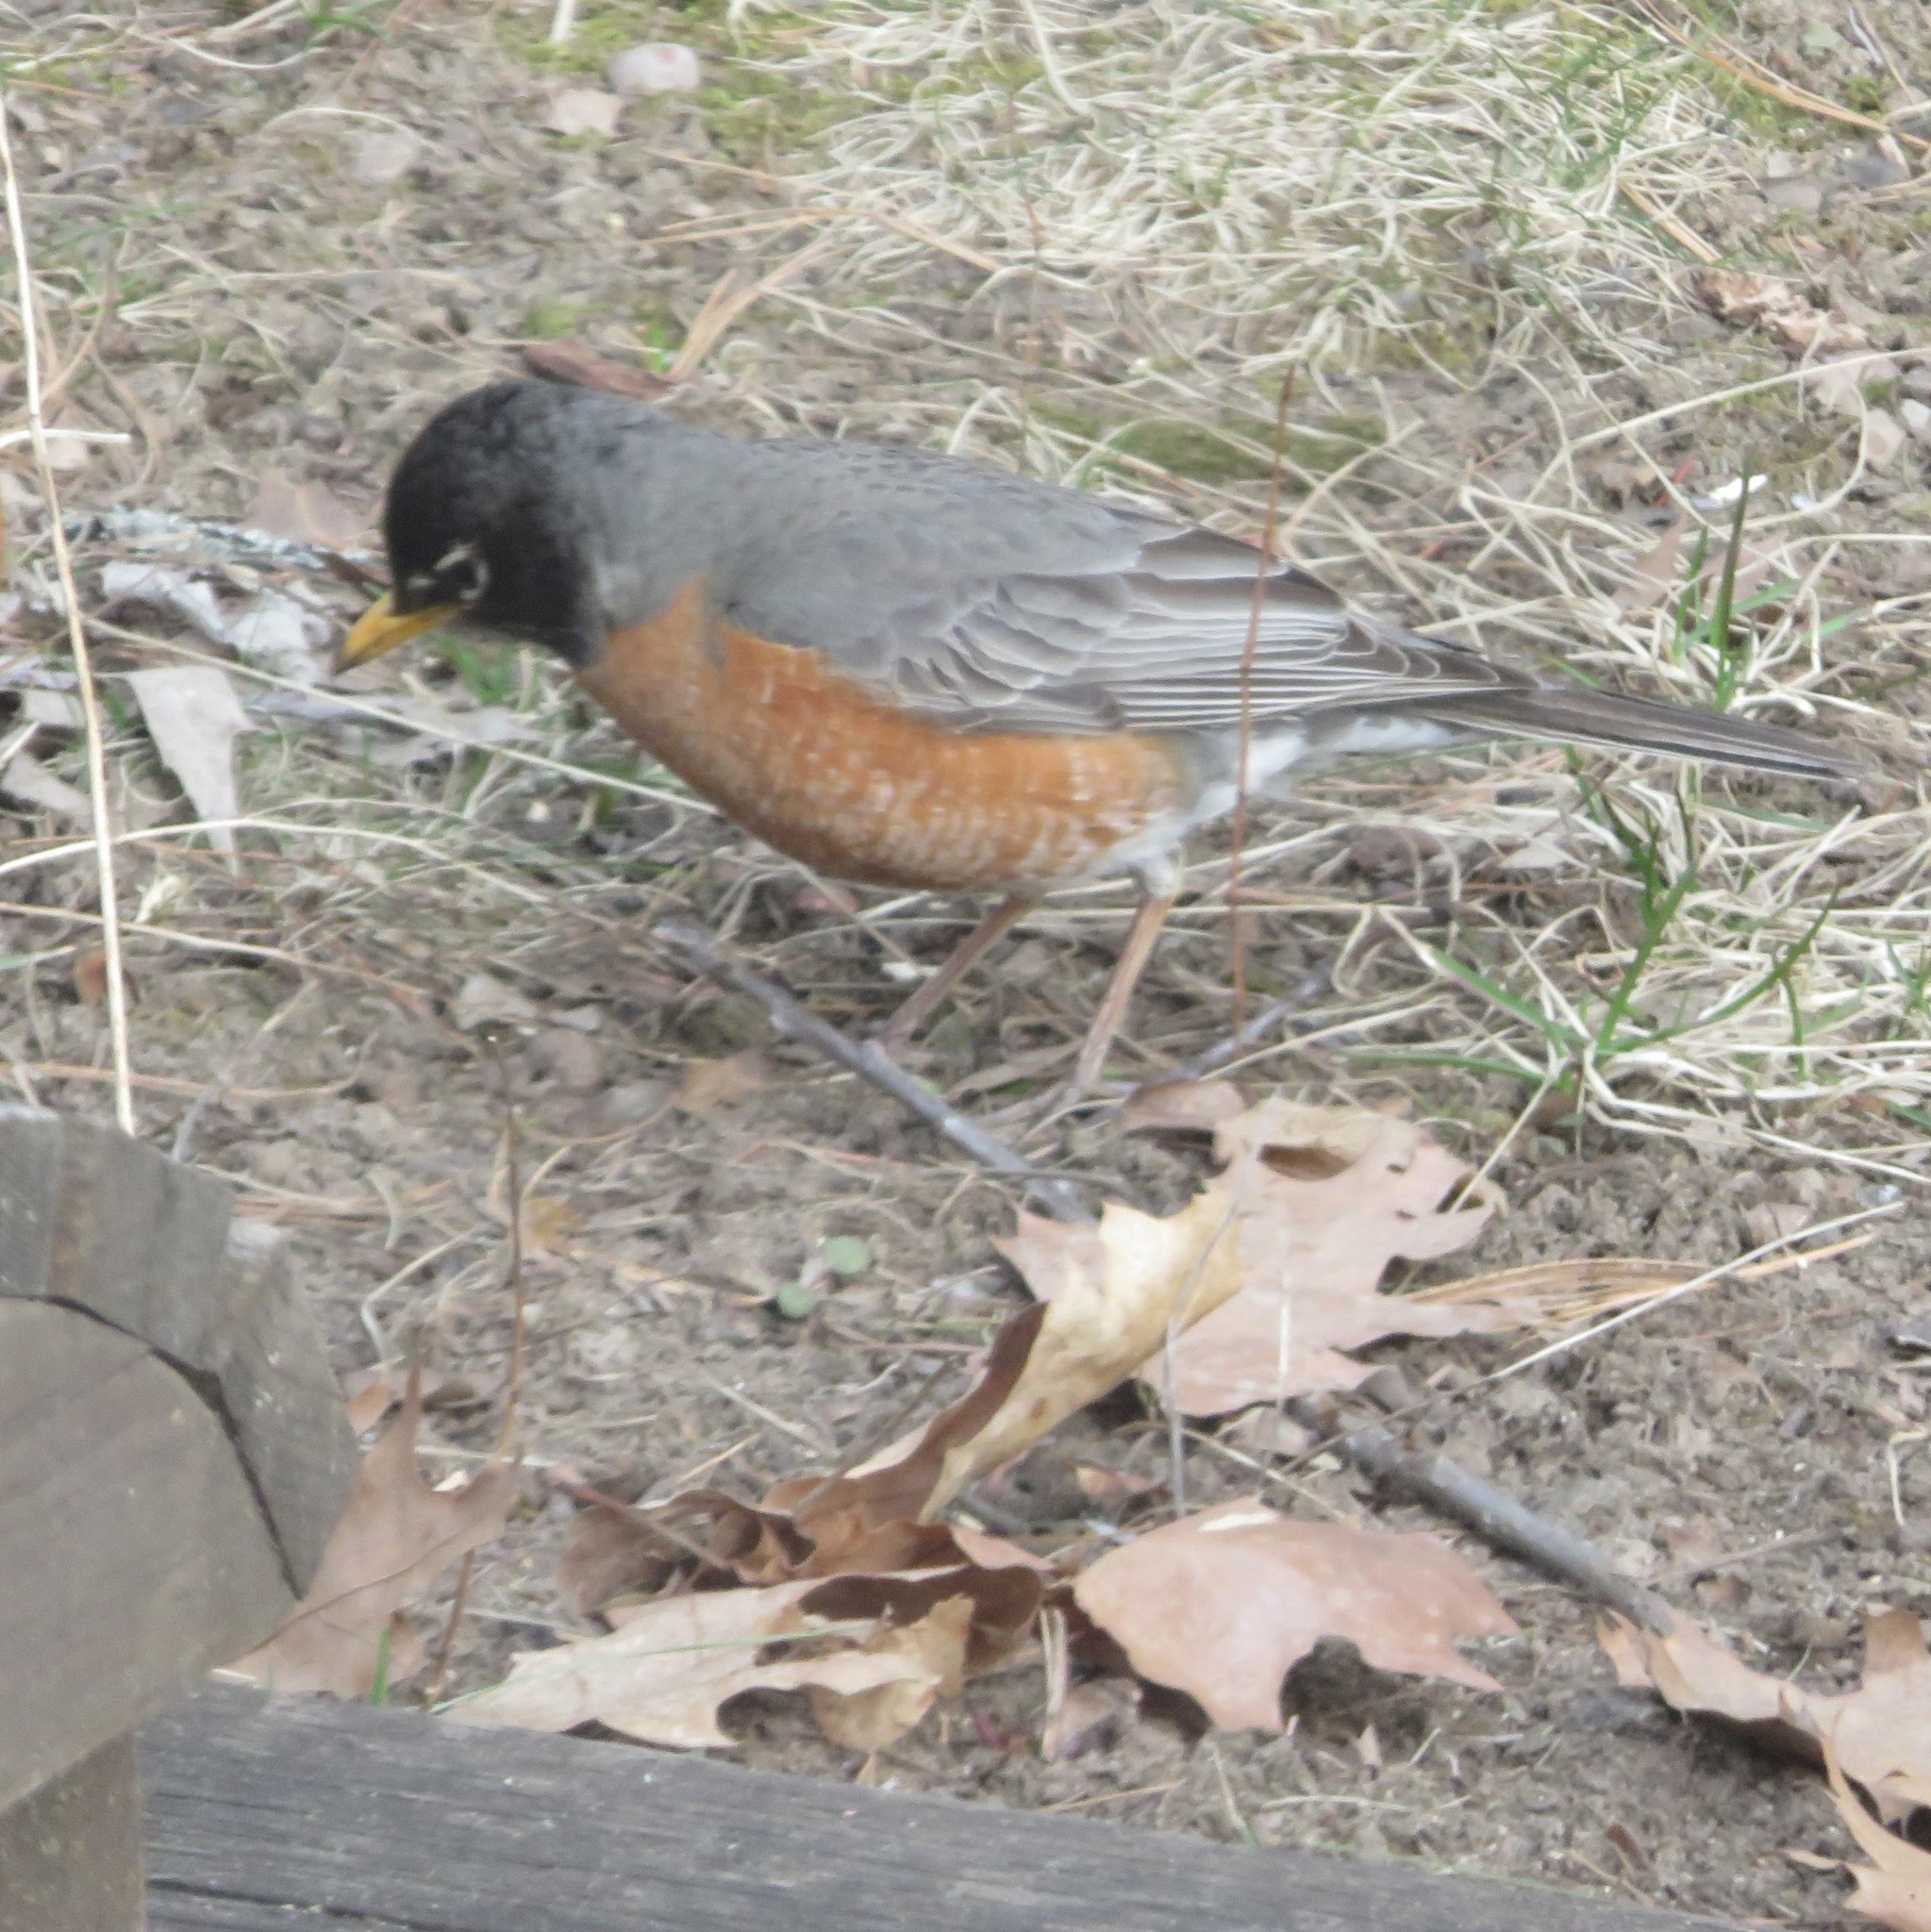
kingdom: Animalia
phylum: Chordata
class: Aves
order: Passeriformes
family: Turdidae
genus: Turdus
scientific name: Turdus migratorius
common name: American robin
